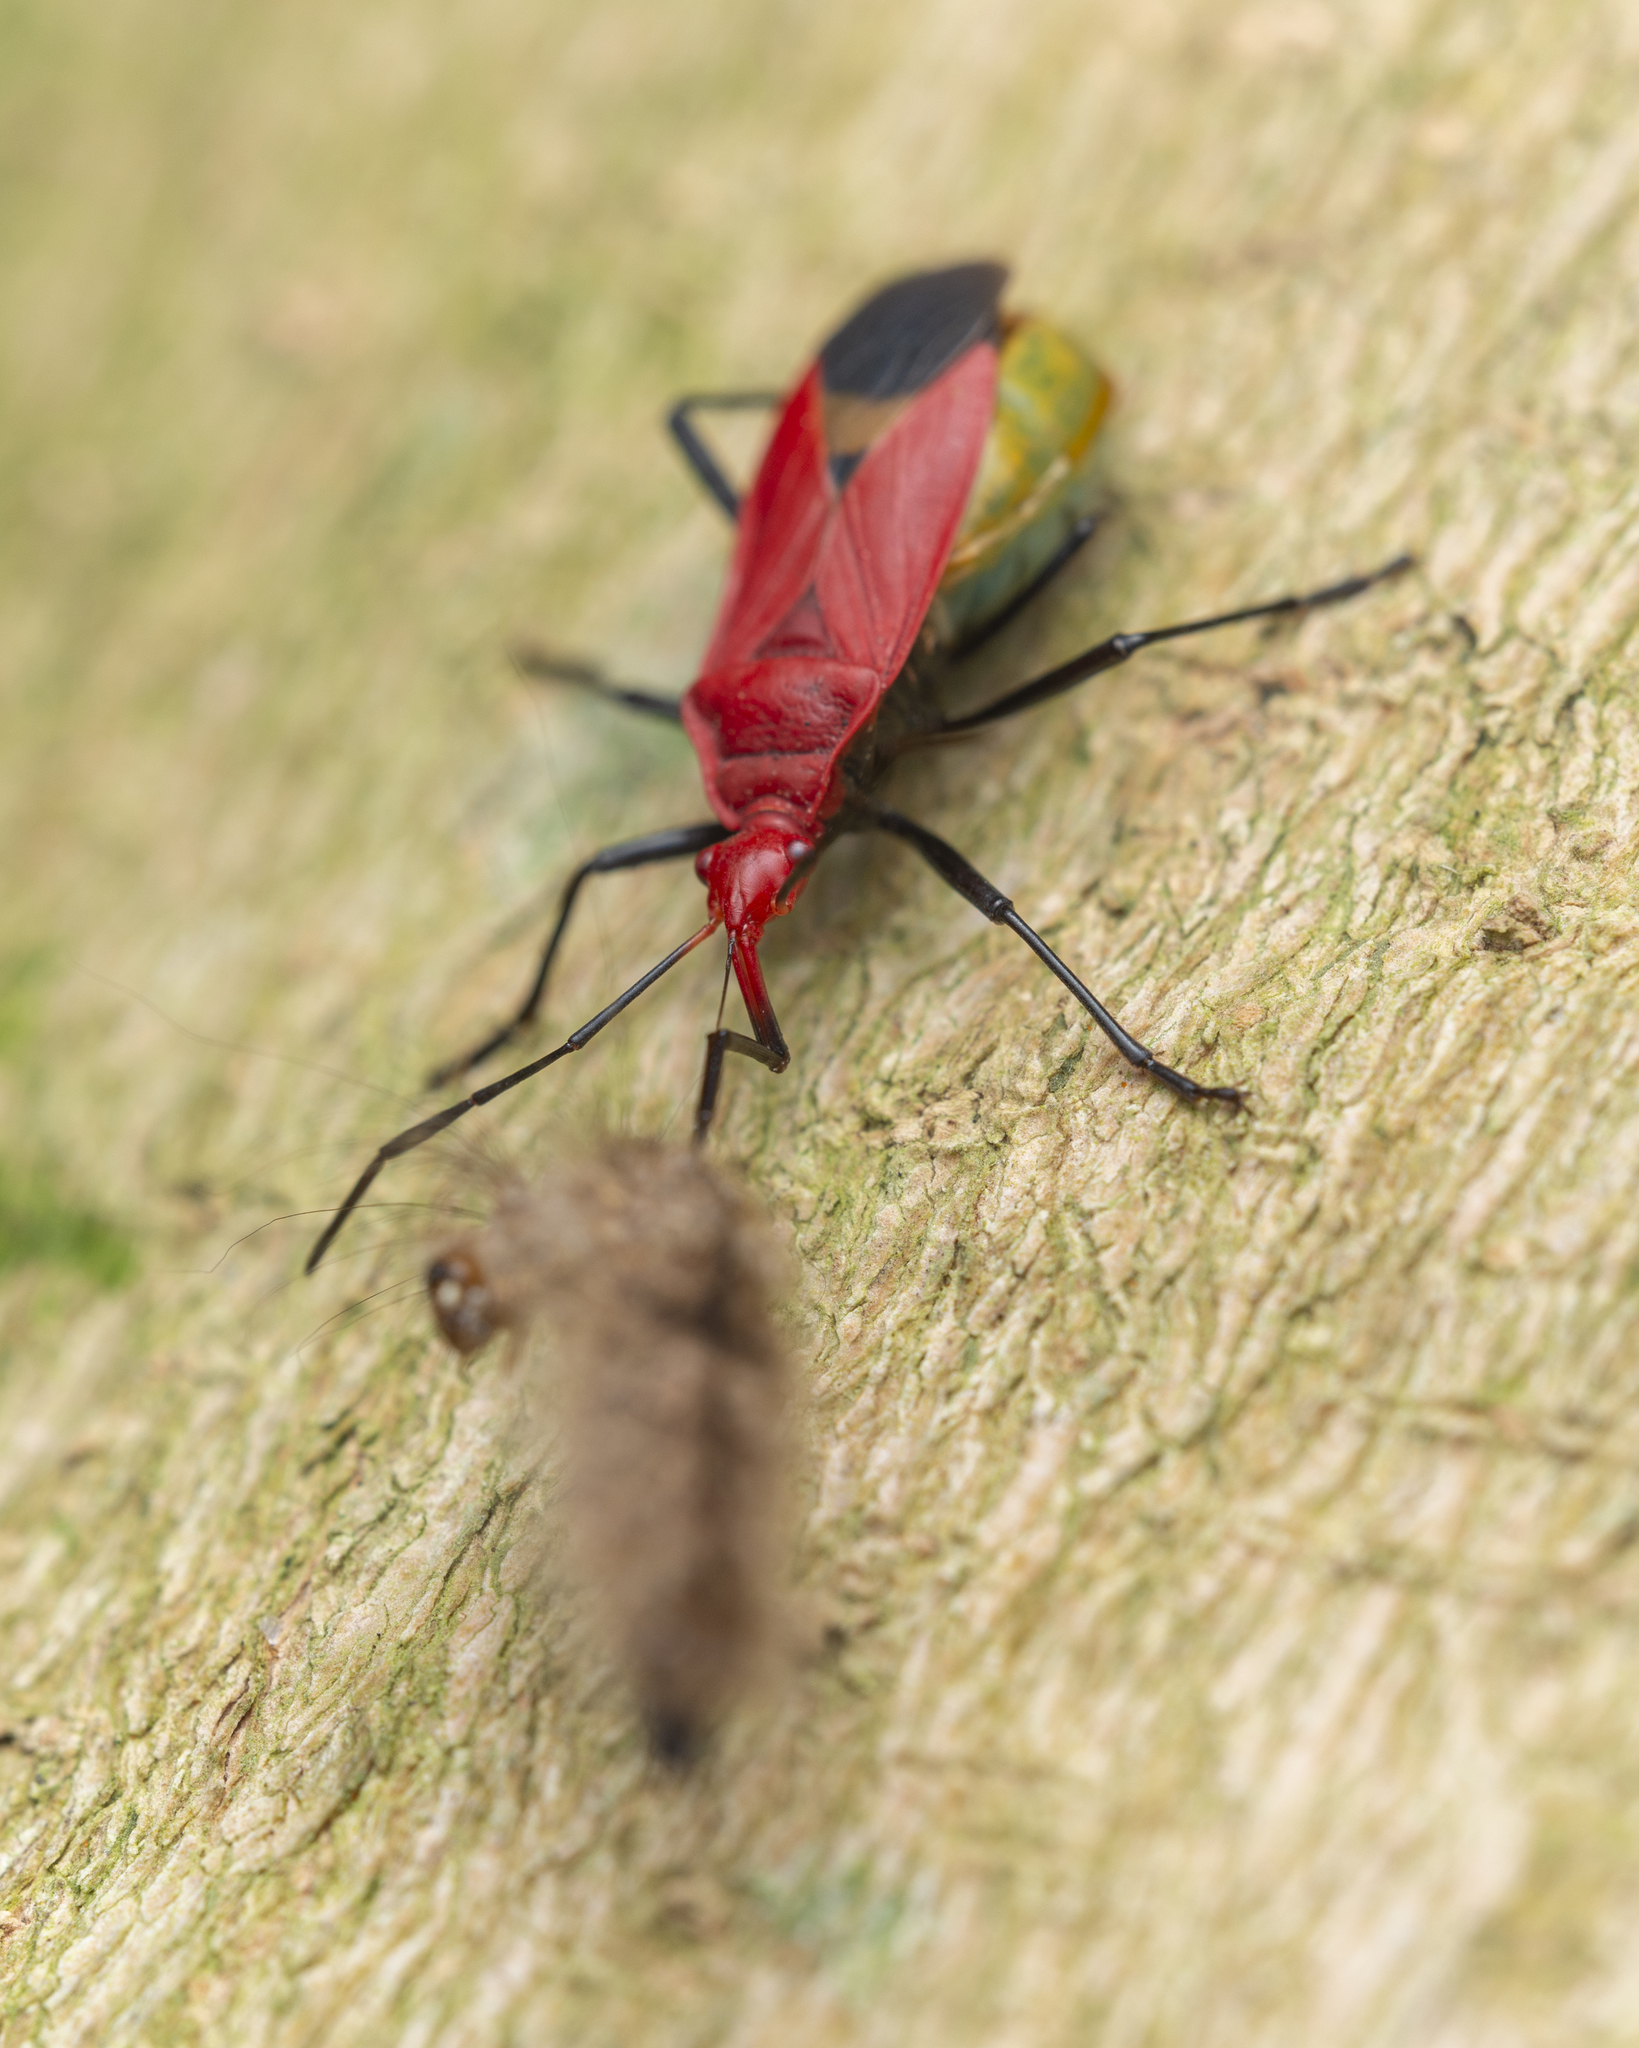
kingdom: Animalia
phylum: Arthropoda
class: Insecta
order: Hemiptera
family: Pyrrhocoridae
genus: Dindymus
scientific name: Dindymus
